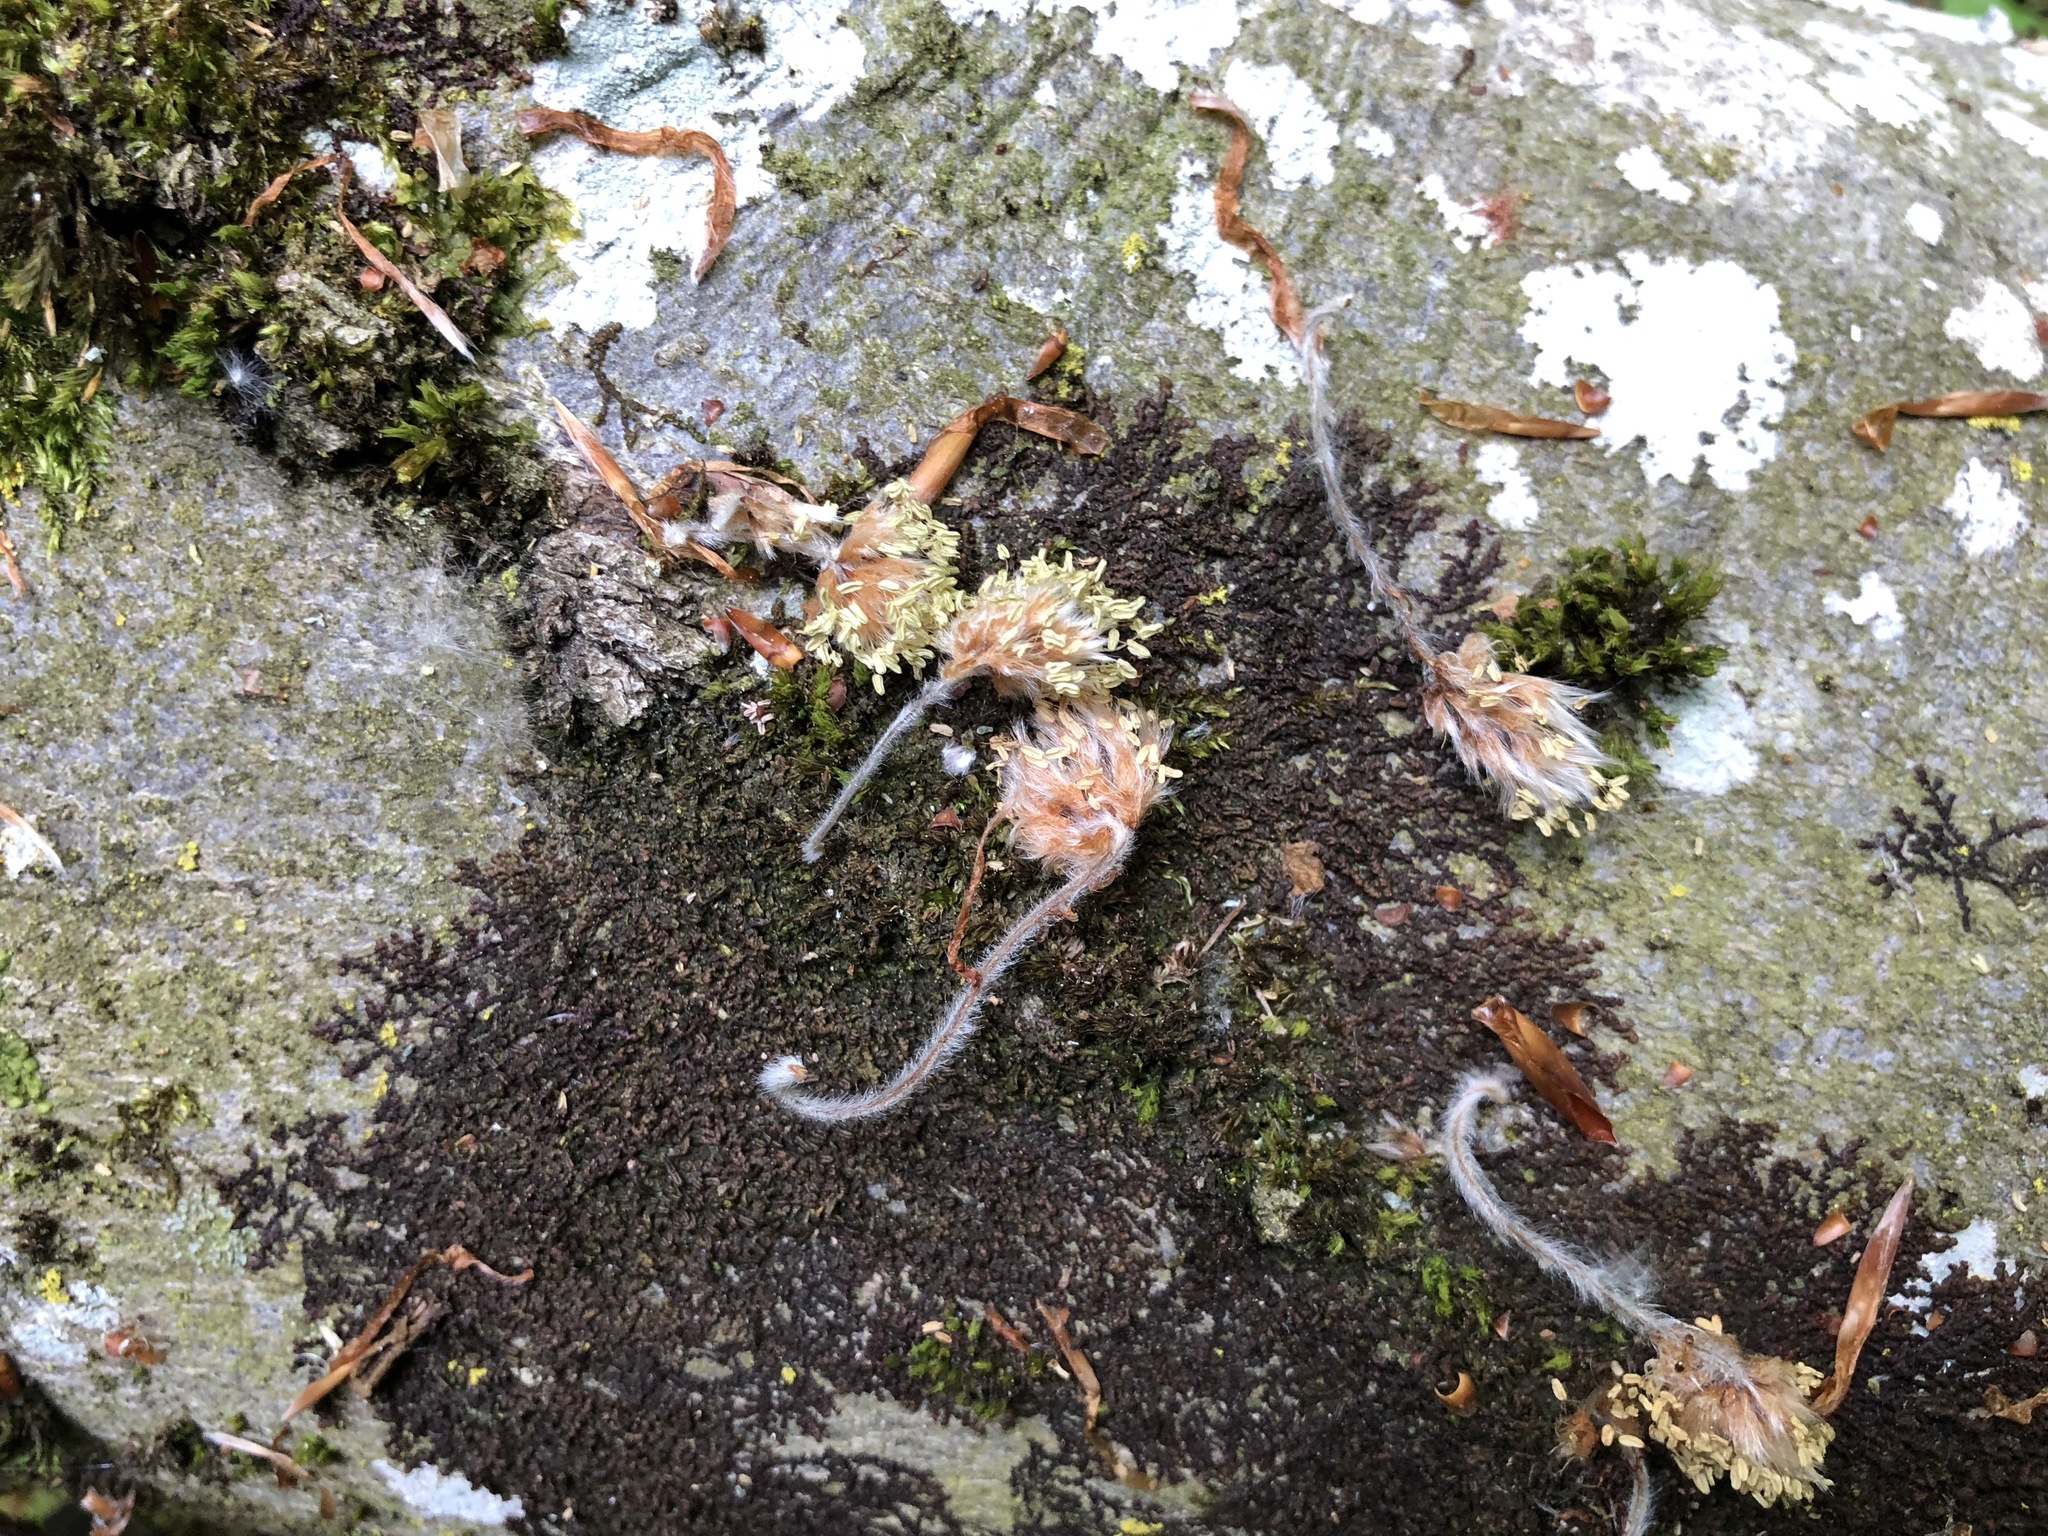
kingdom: Plantae
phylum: Tracheophyta
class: Magnoliopsida
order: Fagales
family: Fagaceae
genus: Fagus
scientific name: Fagus sylvatica
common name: Beech
